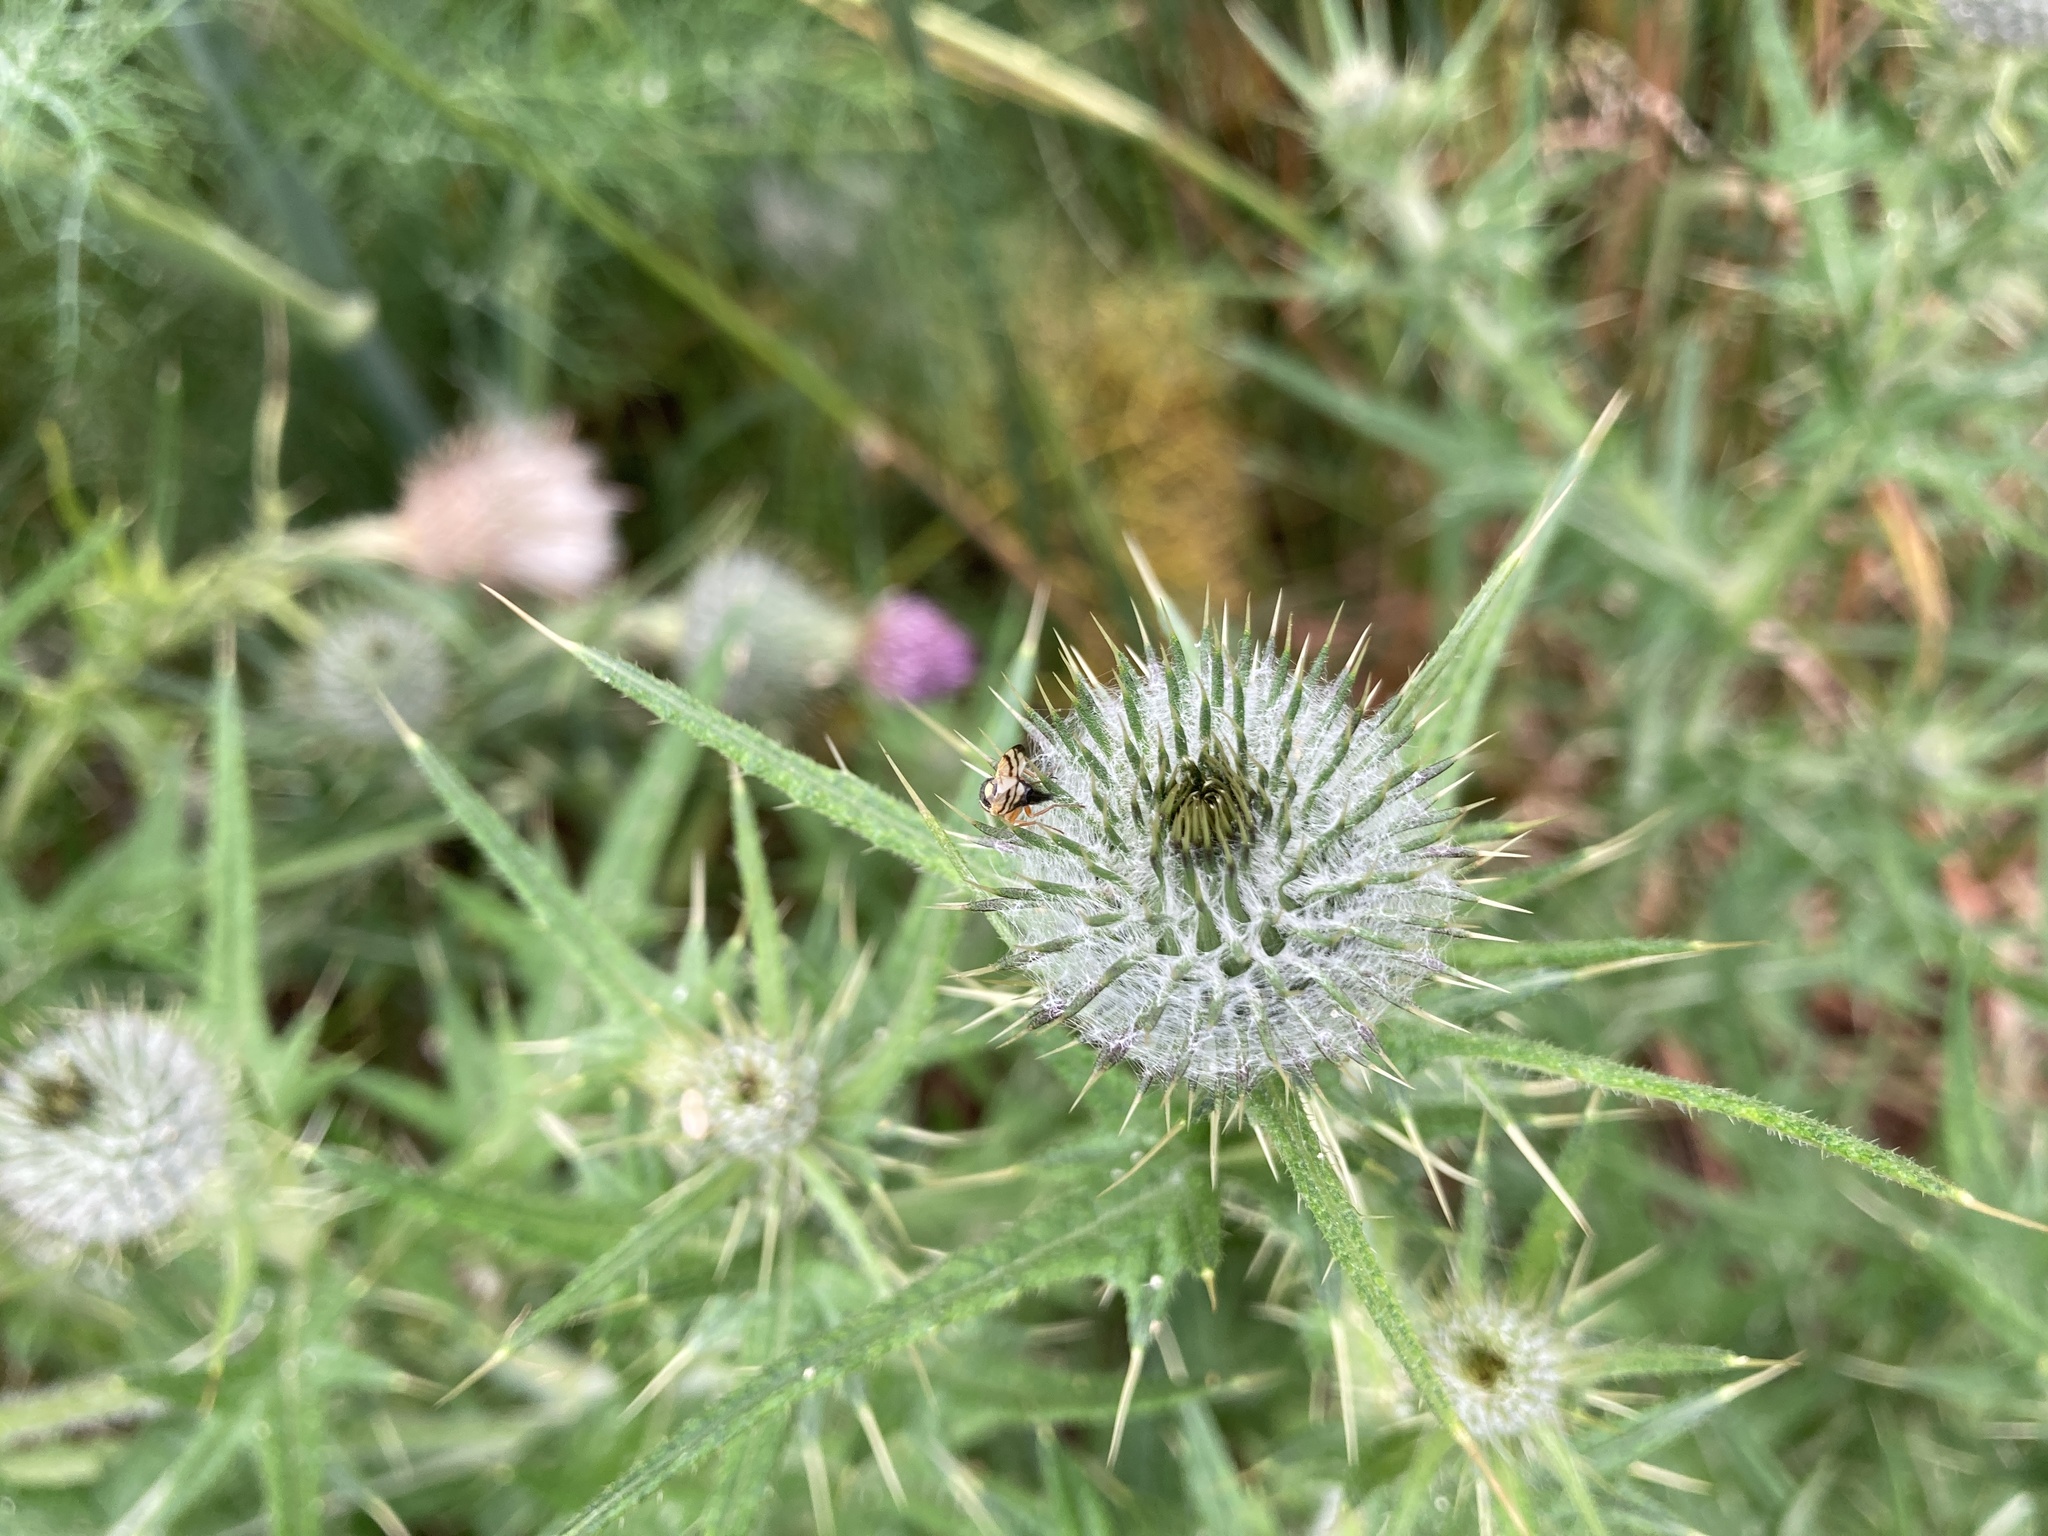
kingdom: Animalia
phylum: Arthropoda
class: Insecta
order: Diptera
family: Tephritidae
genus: Urophora
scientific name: Urophora stylata
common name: Fruit fly
